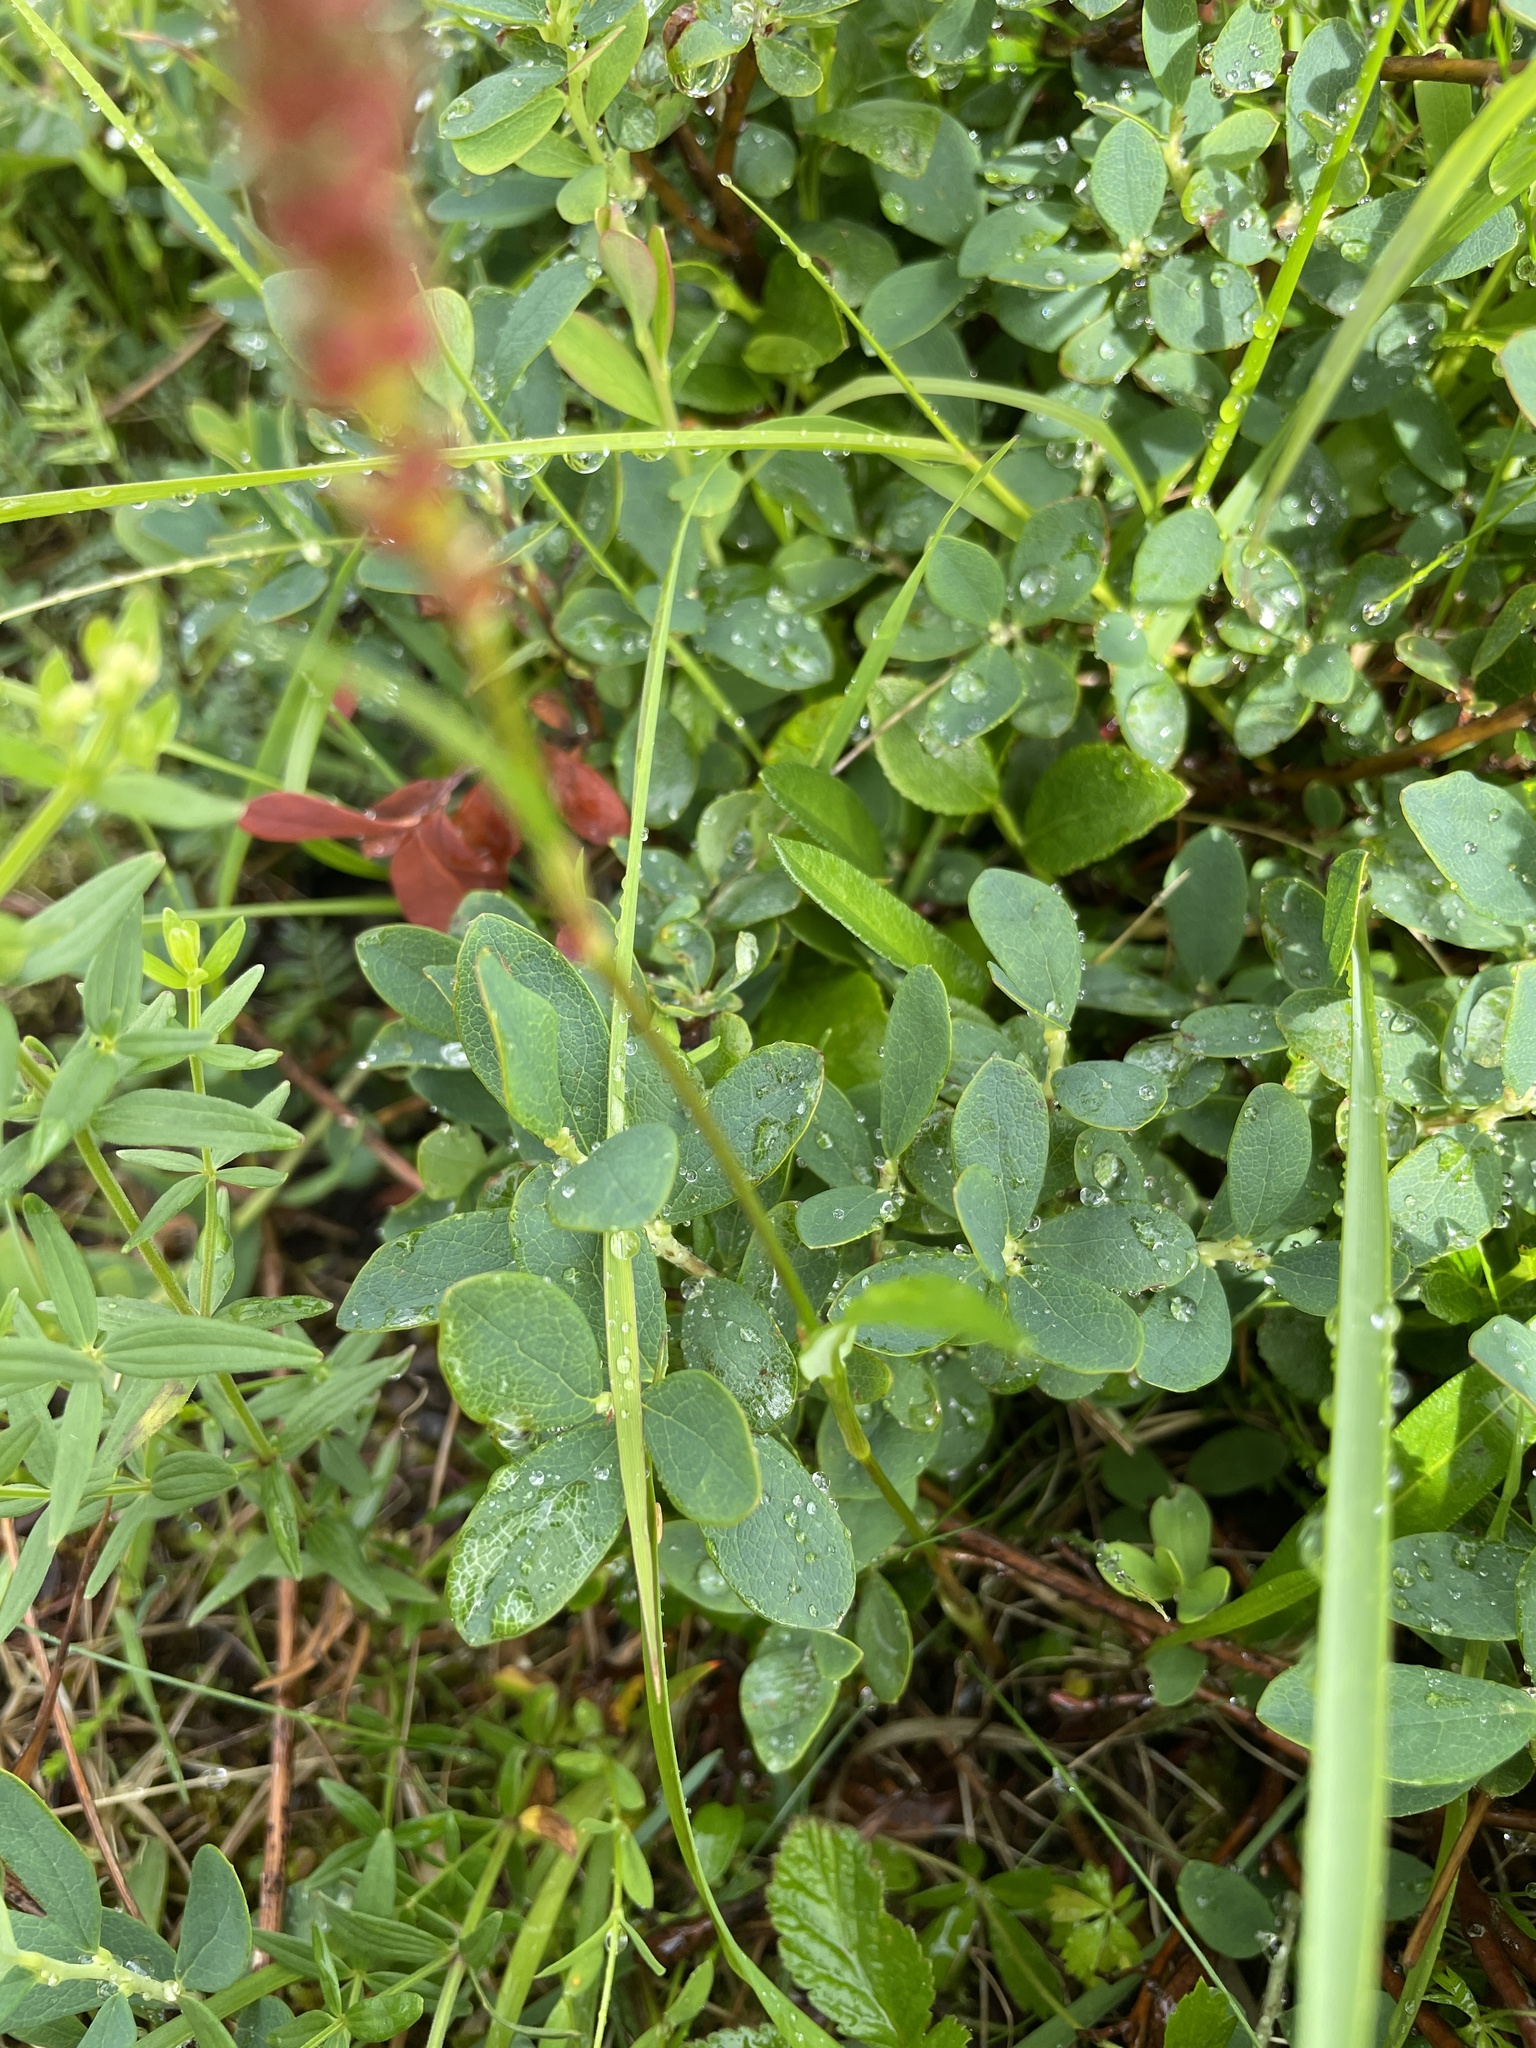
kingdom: Plantae
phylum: Tracheophyta
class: Magnoliopsida
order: Caryophyllales
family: Polygonaceae
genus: Bistorta
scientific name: Bistorta vivipara
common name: Alpine bistort
